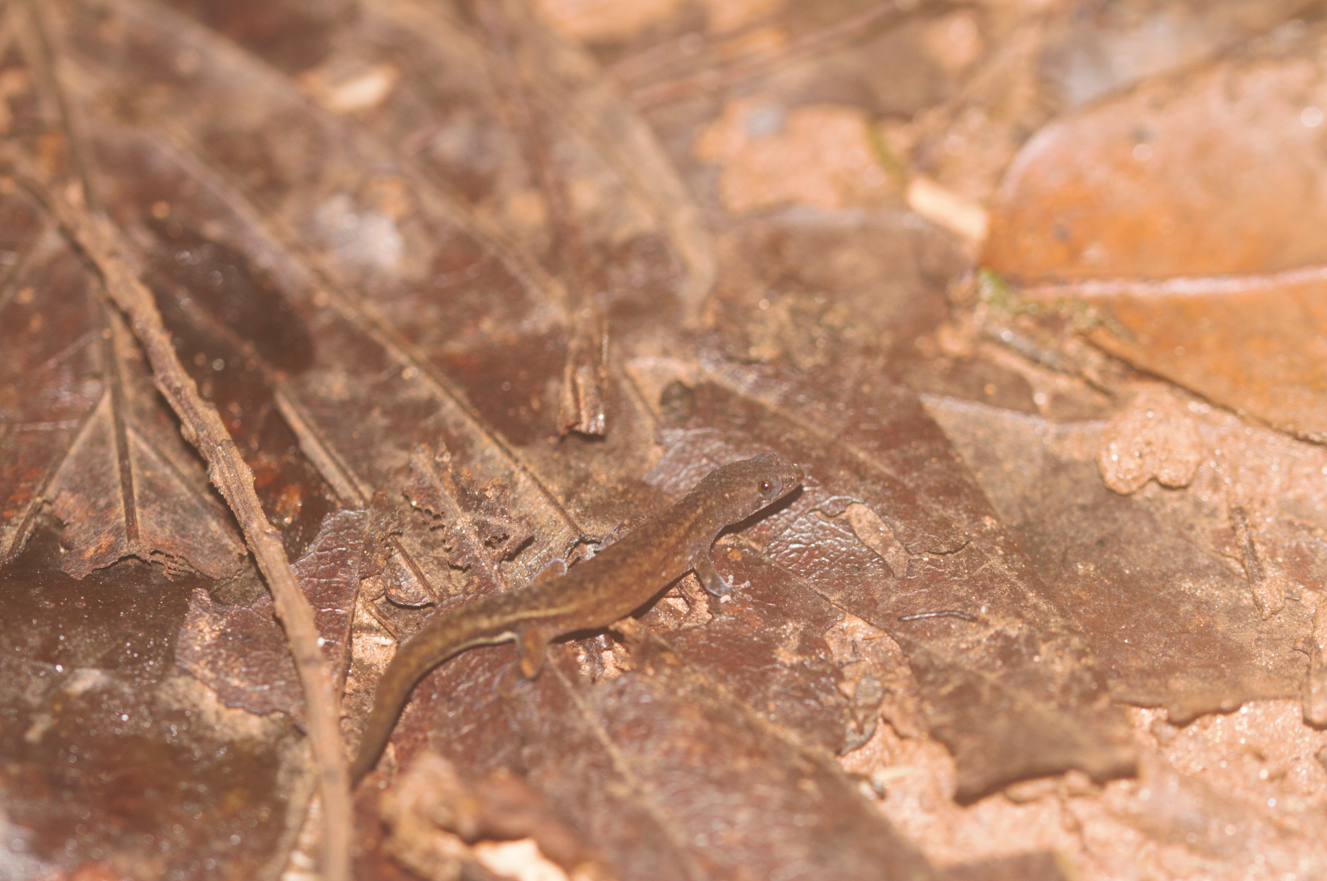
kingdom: Animalia
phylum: Chordata
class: Squamata
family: Sphaerodactylidae
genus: Chatogekko
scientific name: Chatogekko amazonicus
